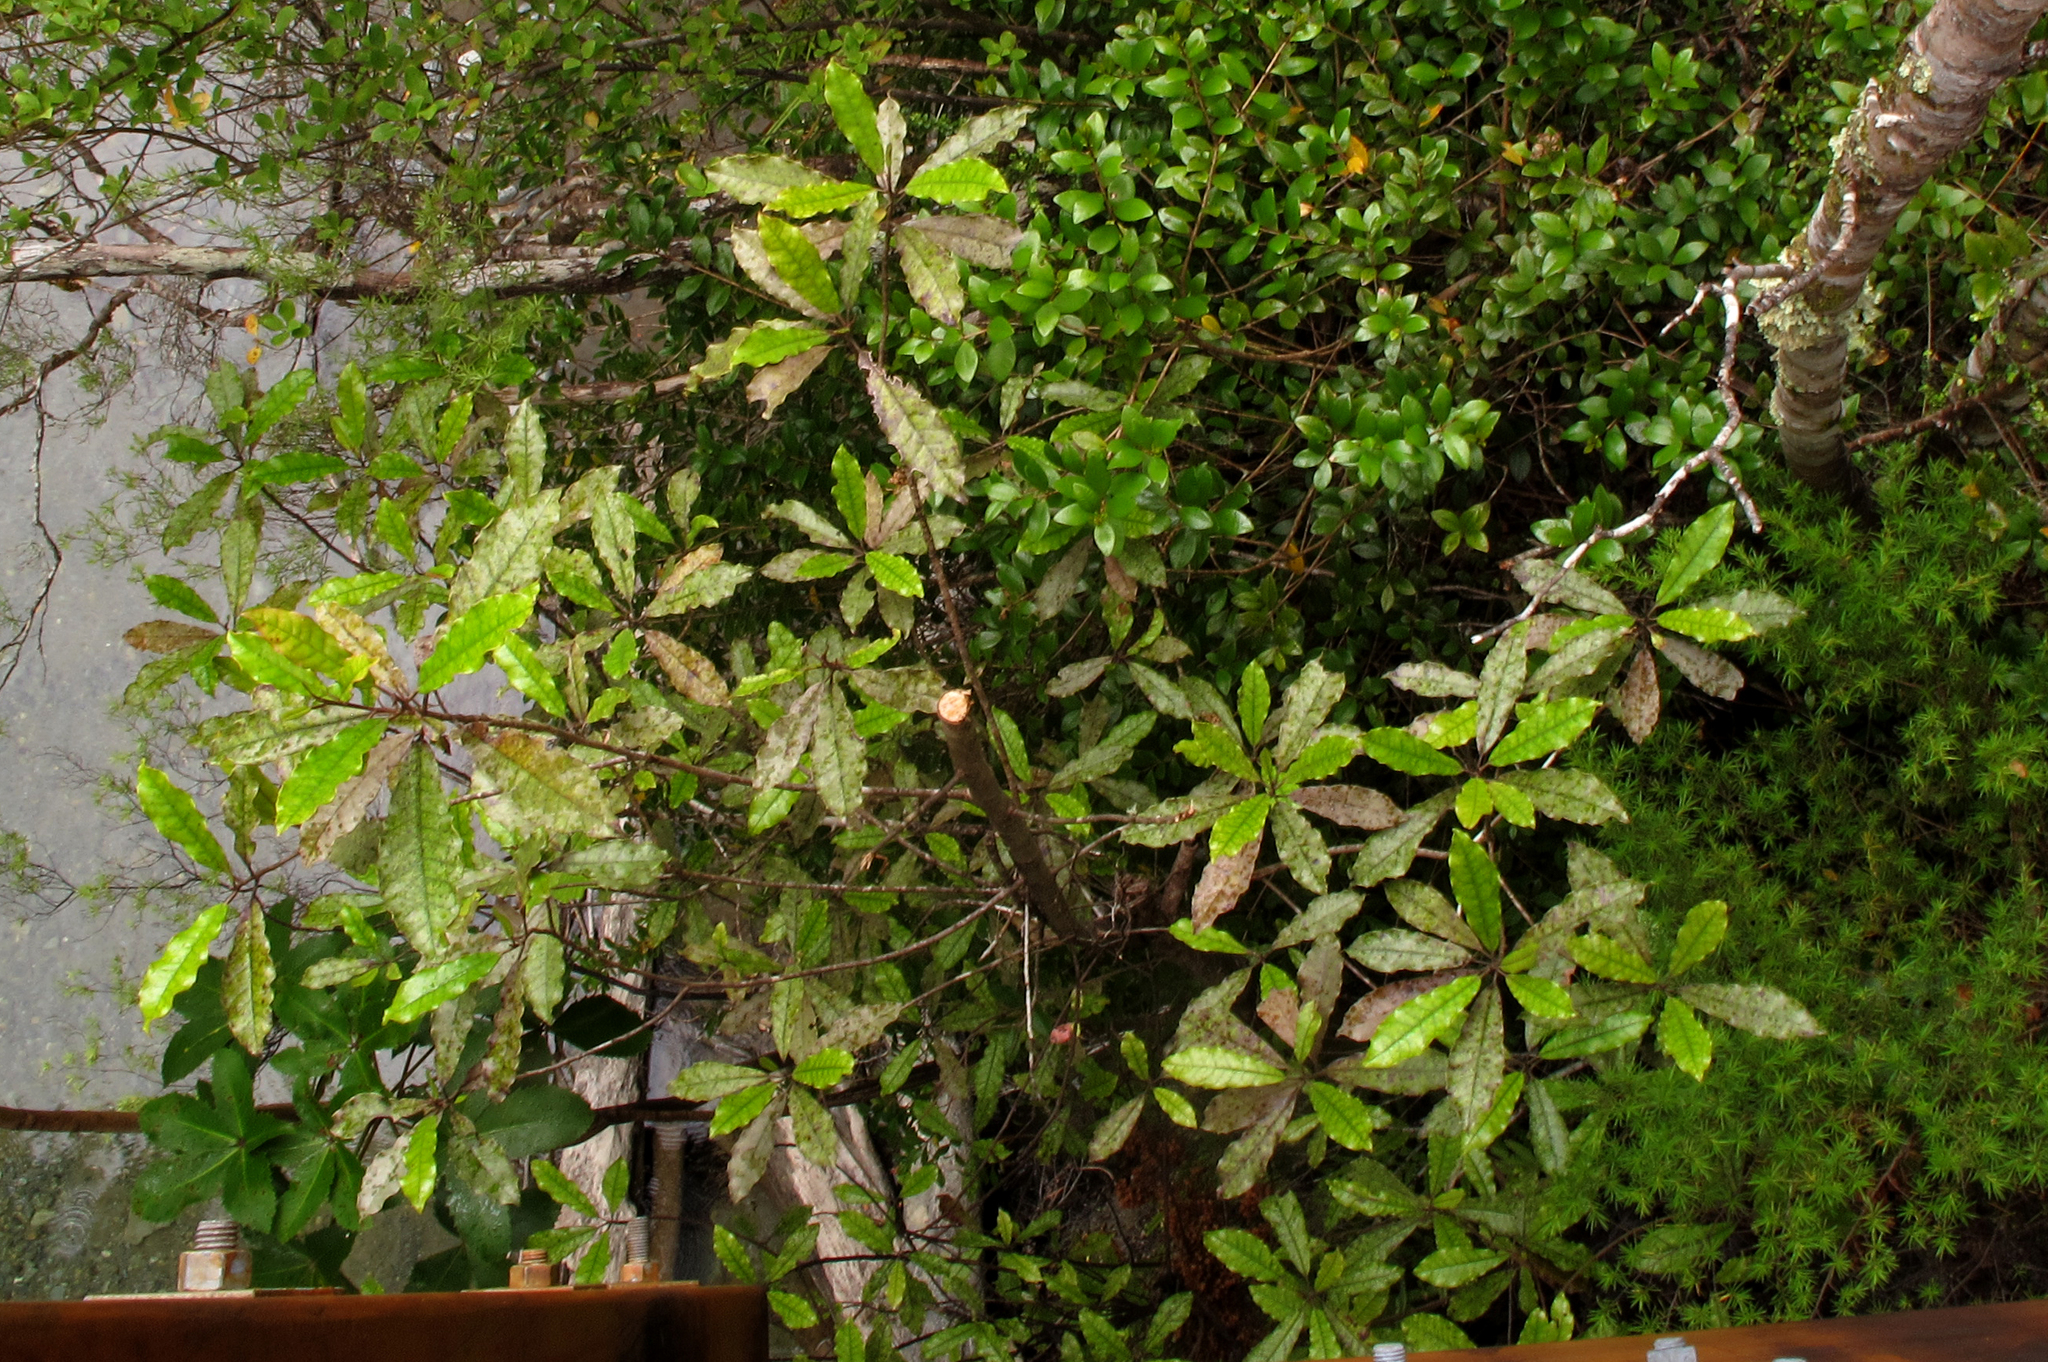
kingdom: Plantae
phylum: Tracheophyta
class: Magnoliopsida
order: Paracryphiales
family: Paracryphiaceae
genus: Quintinia
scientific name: Quintinia serrata
